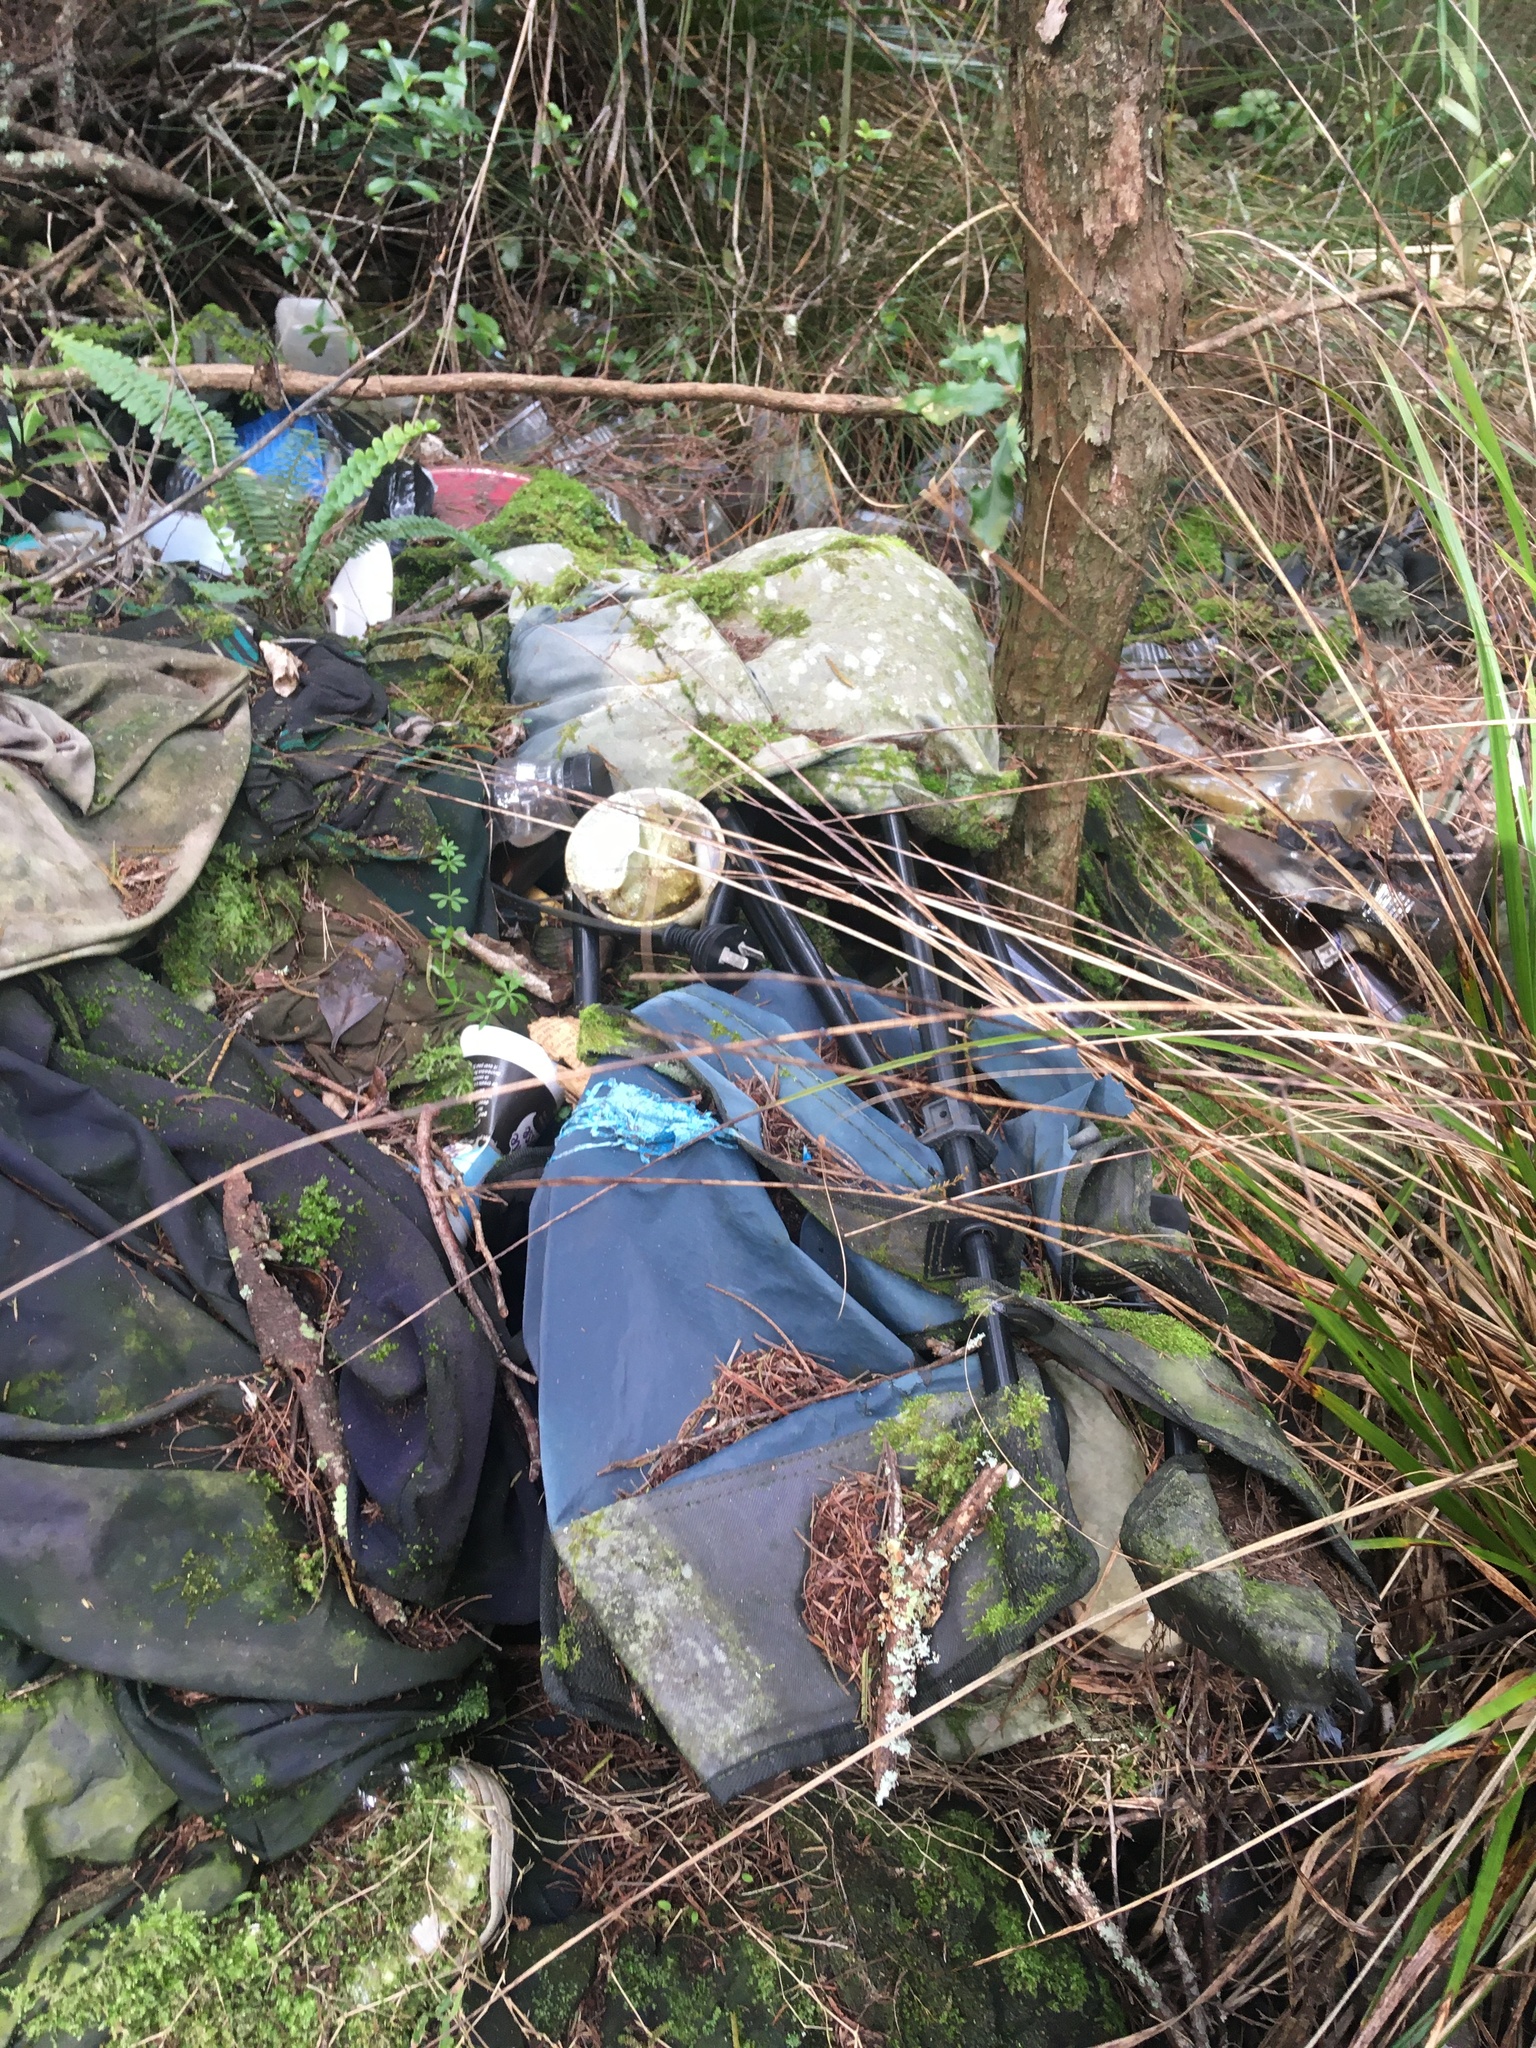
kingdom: Plantae
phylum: Tracheophyta
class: Polypodiopsida
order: Polypodiales
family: Nephrolepidaceae
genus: Nephrolepis
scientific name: Nephrolepis cordifolia
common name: Narrow swordfern
